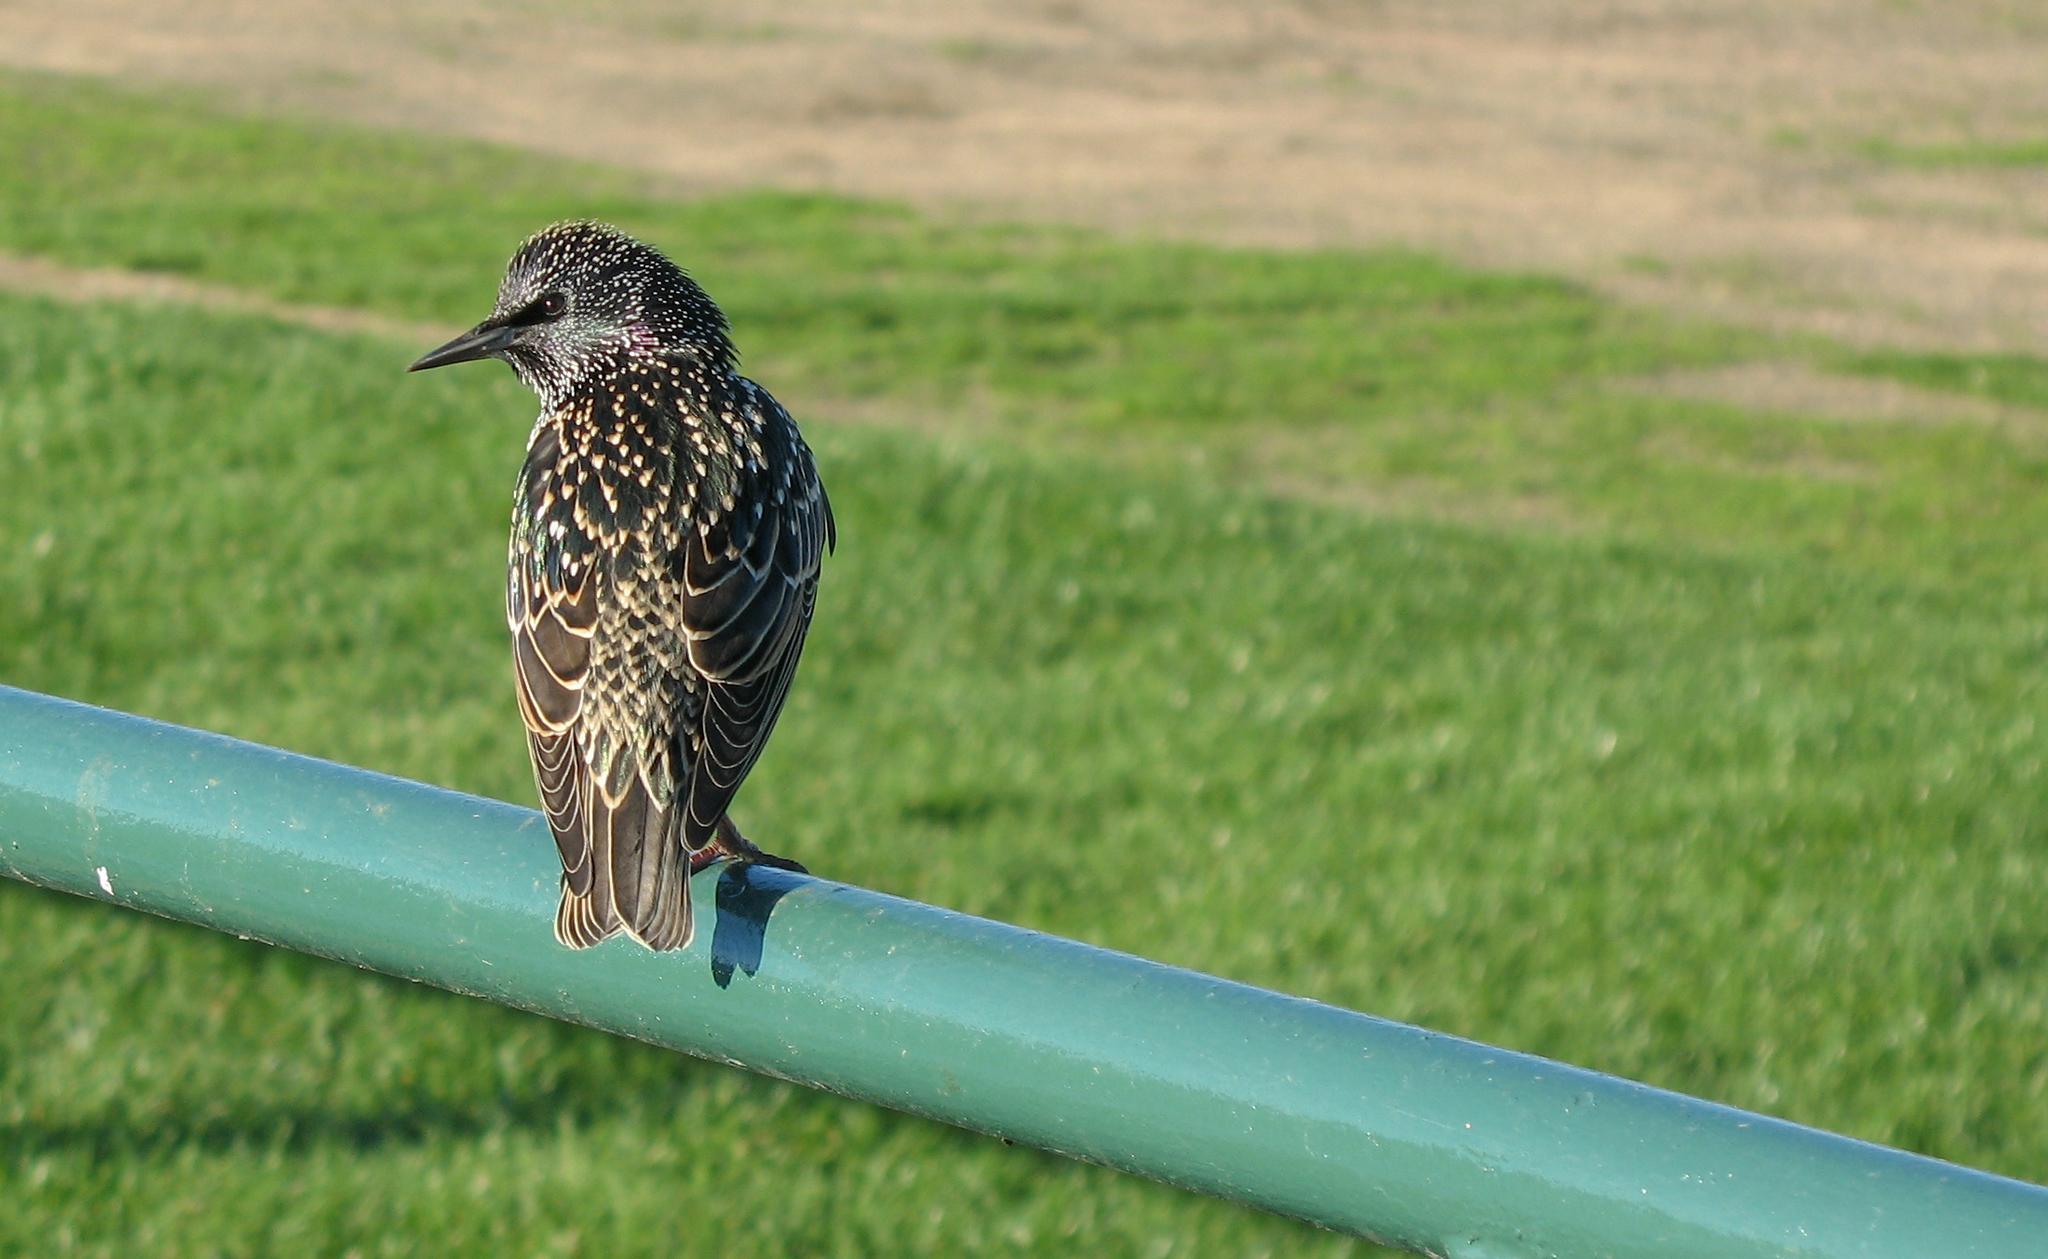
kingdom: Animalia
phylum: Chordata
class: Aves
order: Passeriformes
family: Sturnidae
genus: Sturnus
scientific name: Sturnus vulgaris
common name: Common starling
